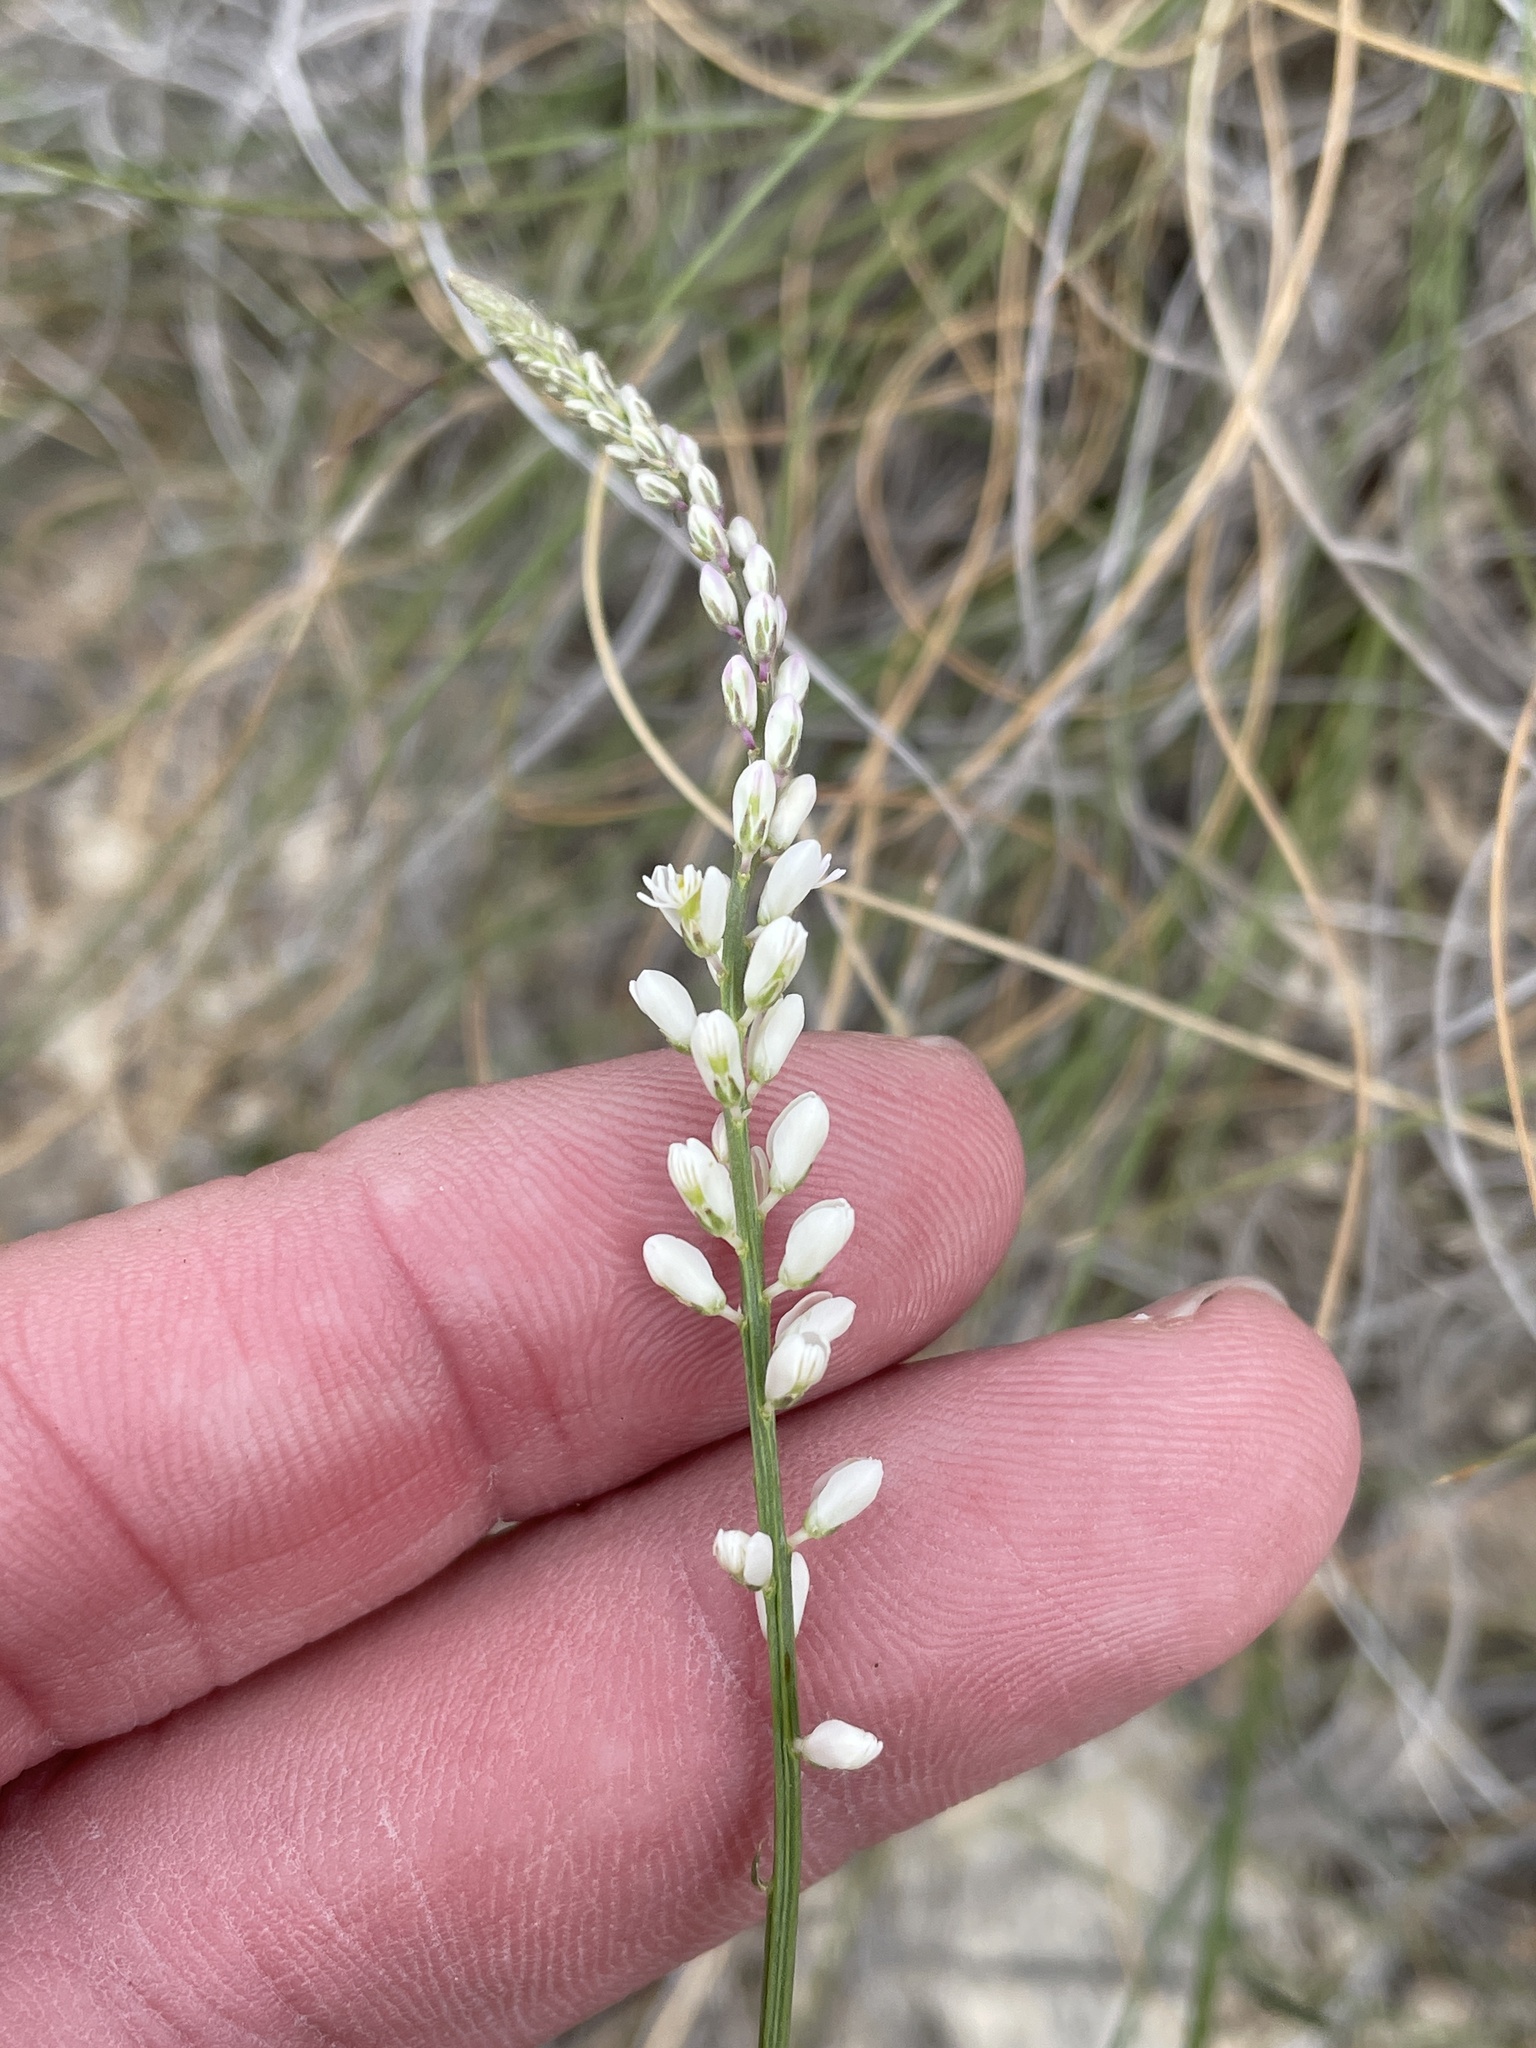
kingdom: Plantae
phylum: Tracheophyta
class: Magnoliopsida
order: Fabales
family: Polygalaceae
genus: Polygala
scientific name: Polygala alba
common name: White milkwort
